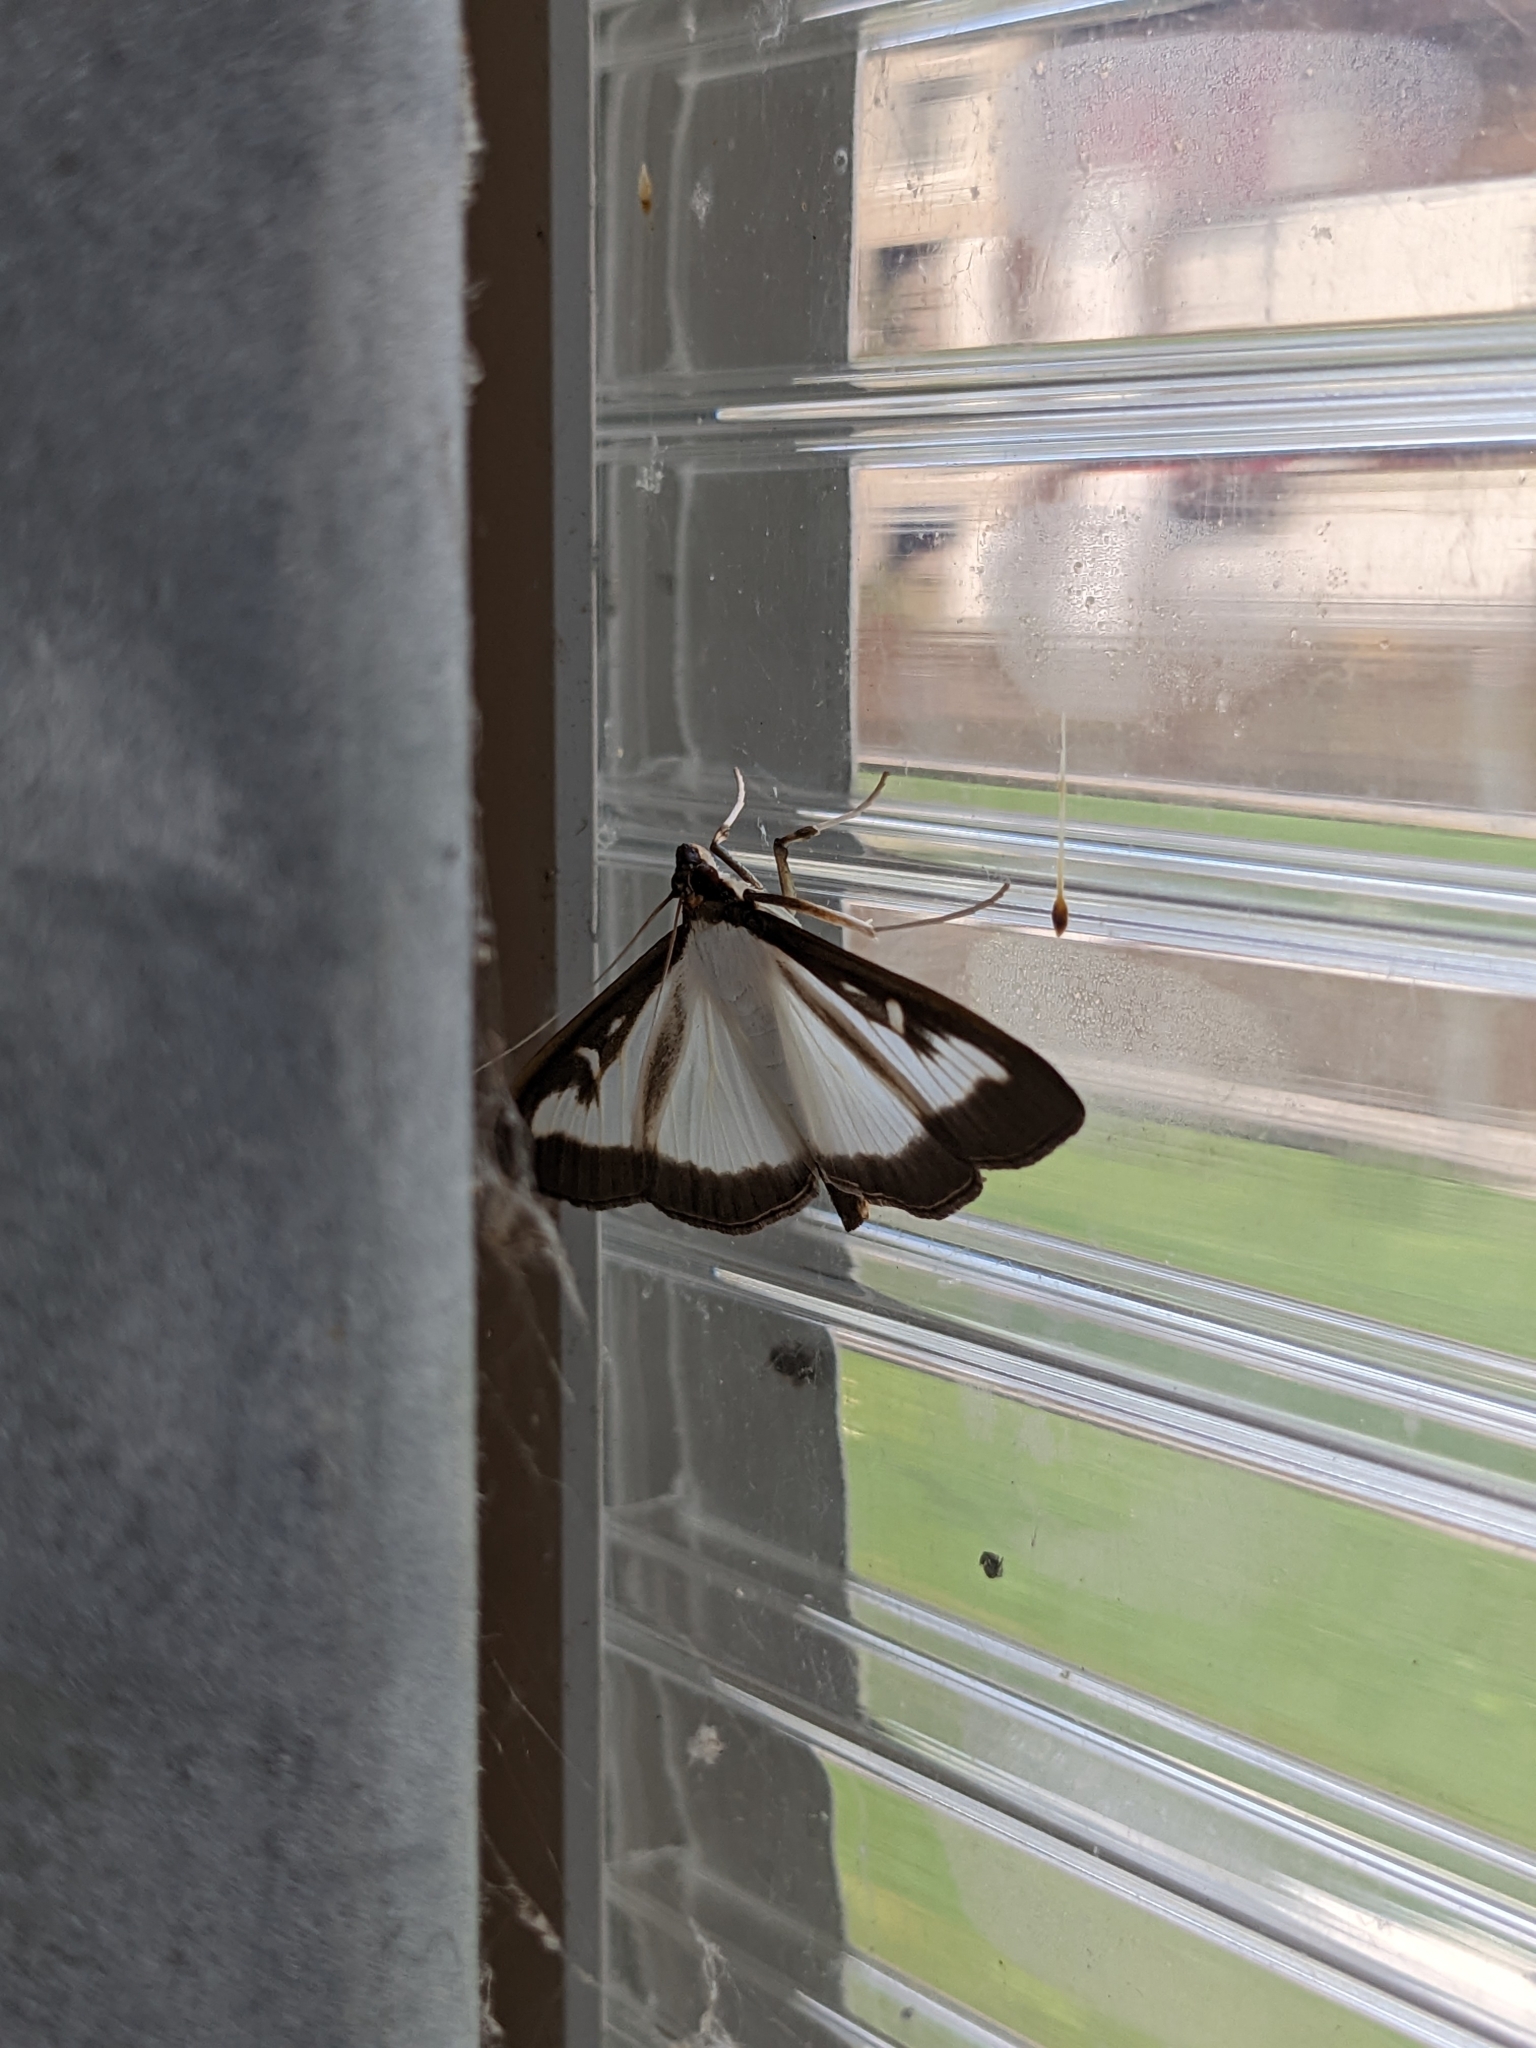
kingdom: Animalia
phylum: Arthropoda
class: Insecta
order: Lepidoptera
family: Crambidae
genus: Cydalima
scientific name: Cydalima perspectalis
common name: Box tree moth
